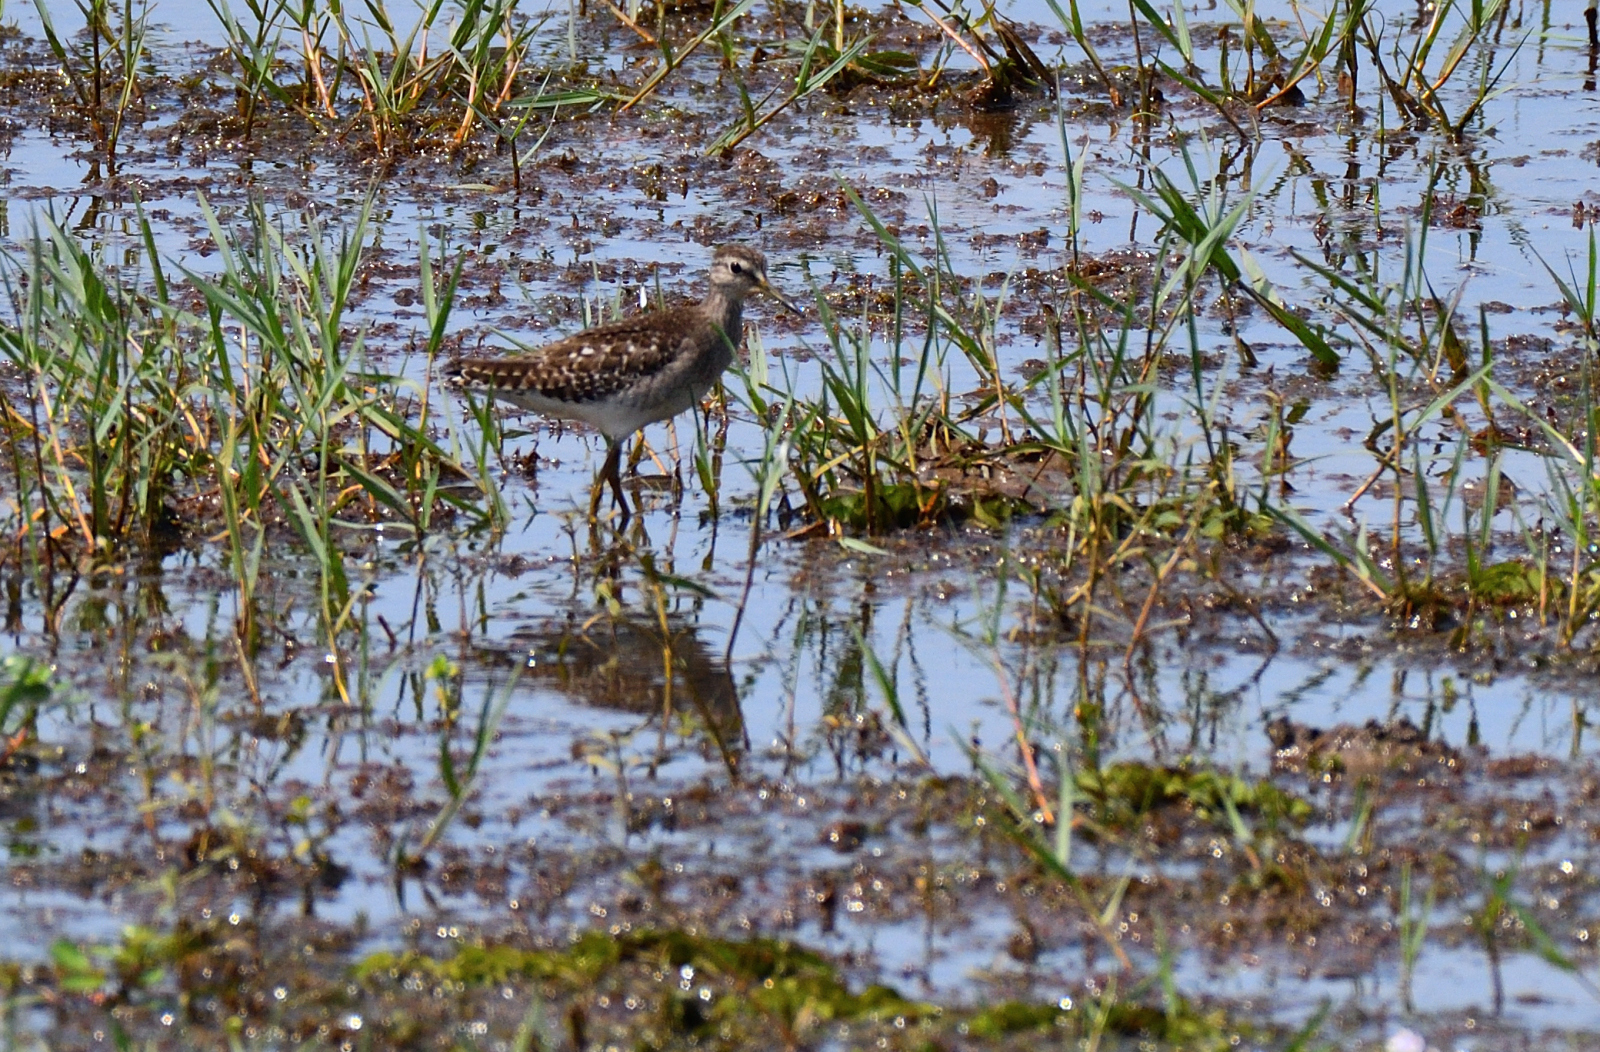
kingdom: Animalia
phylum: Chordata
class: Aves
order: Charadriiformes
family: Scolopacidae
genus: Tringa
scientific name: Tringa glareola
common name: Wood sandpiper
